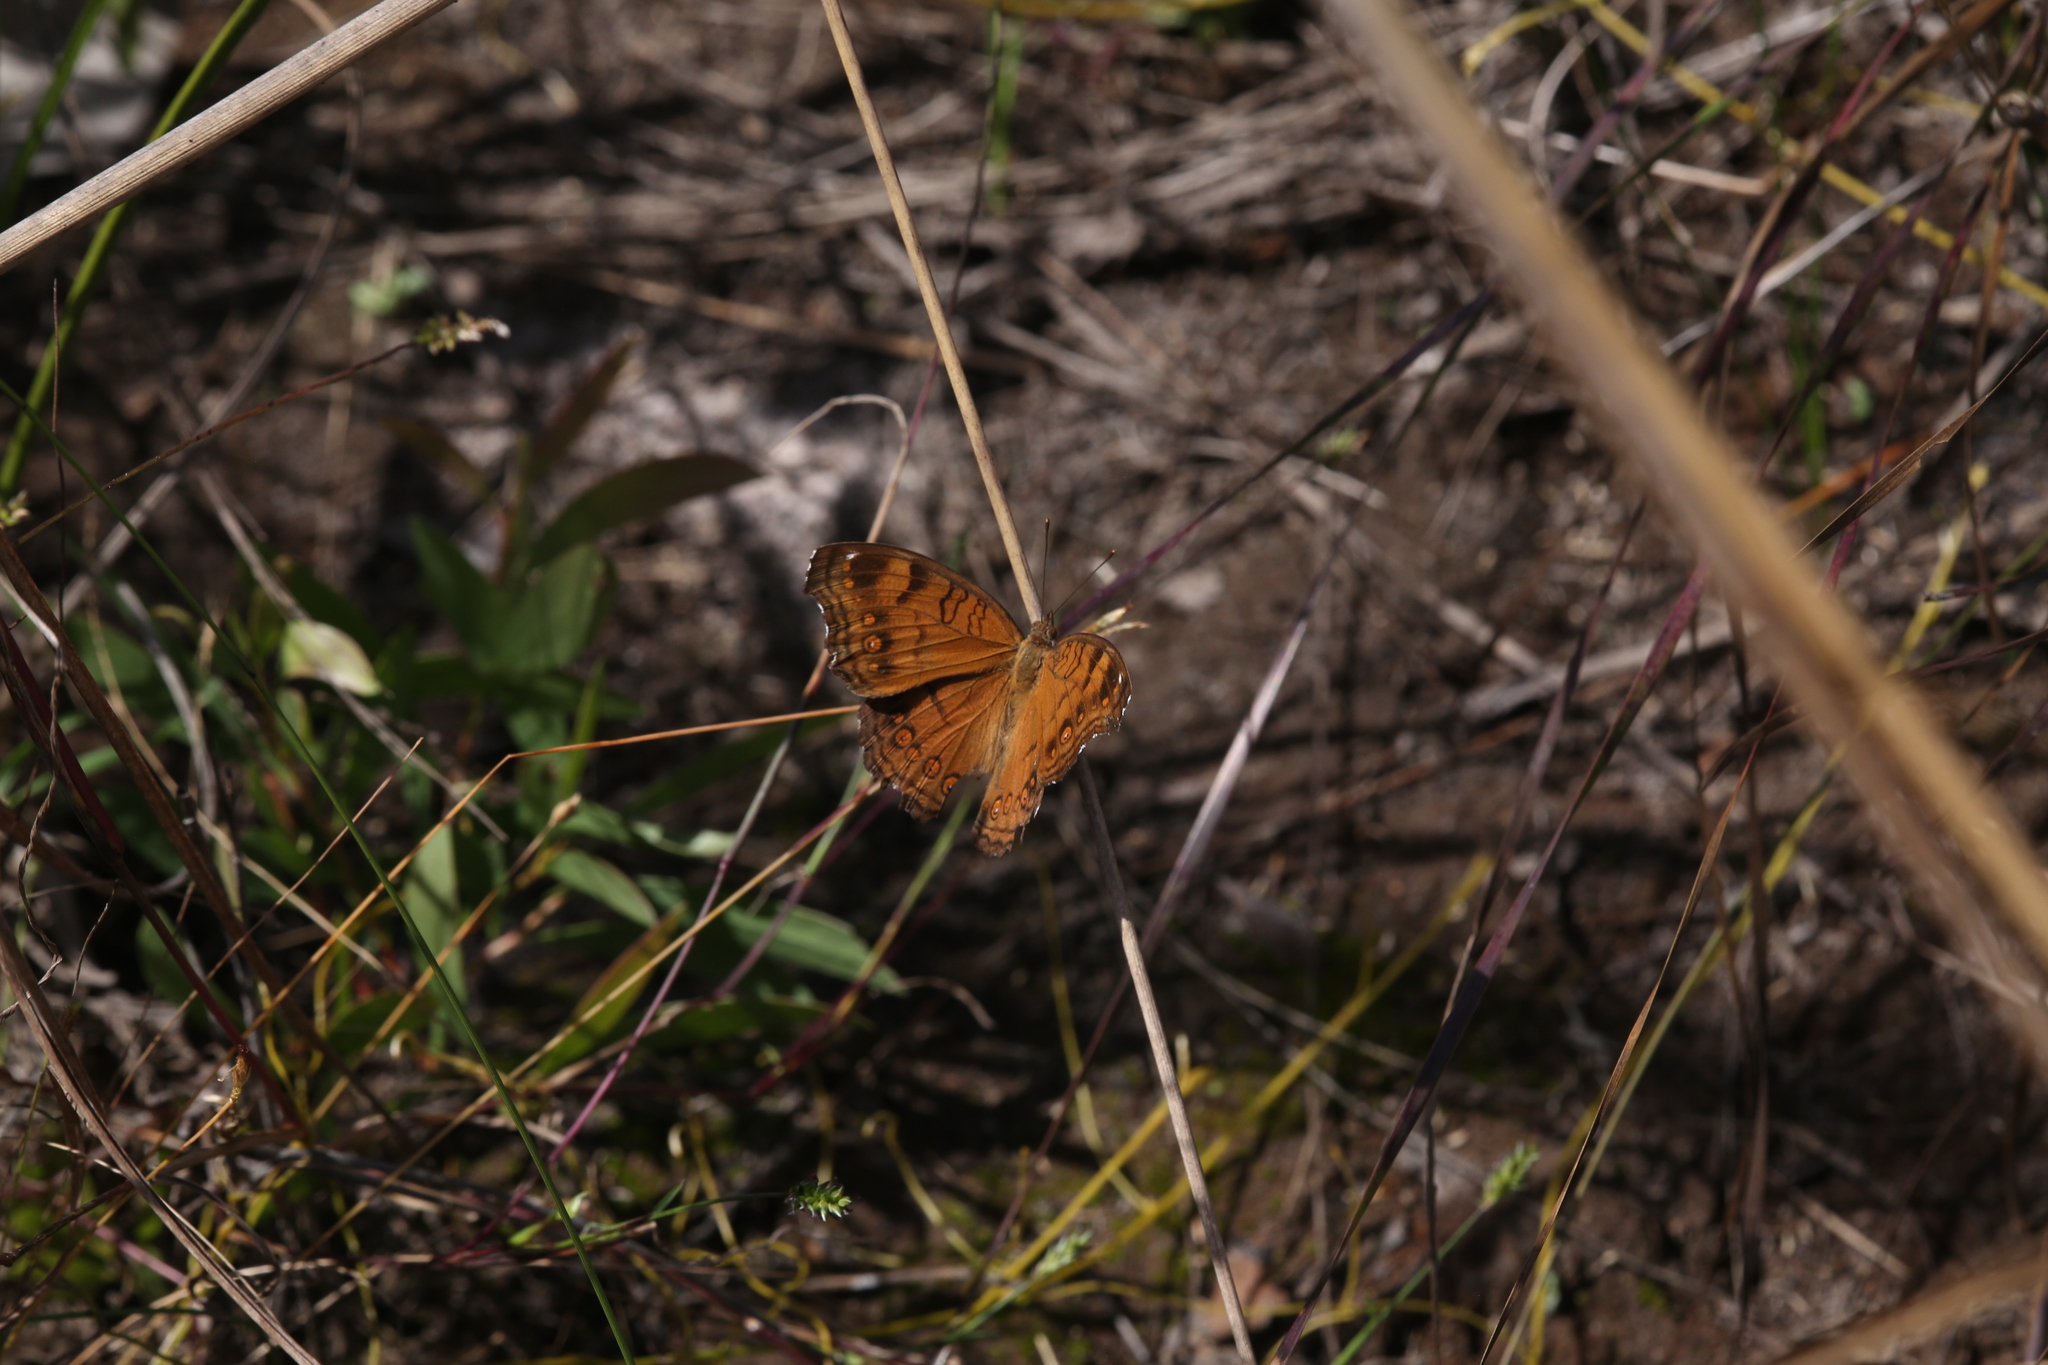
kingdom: Animalia
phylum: Arthropoda
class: Insecta
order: Lepidoptera
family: Nymphalidae
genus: Junonia
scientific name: Junonia hedonia
